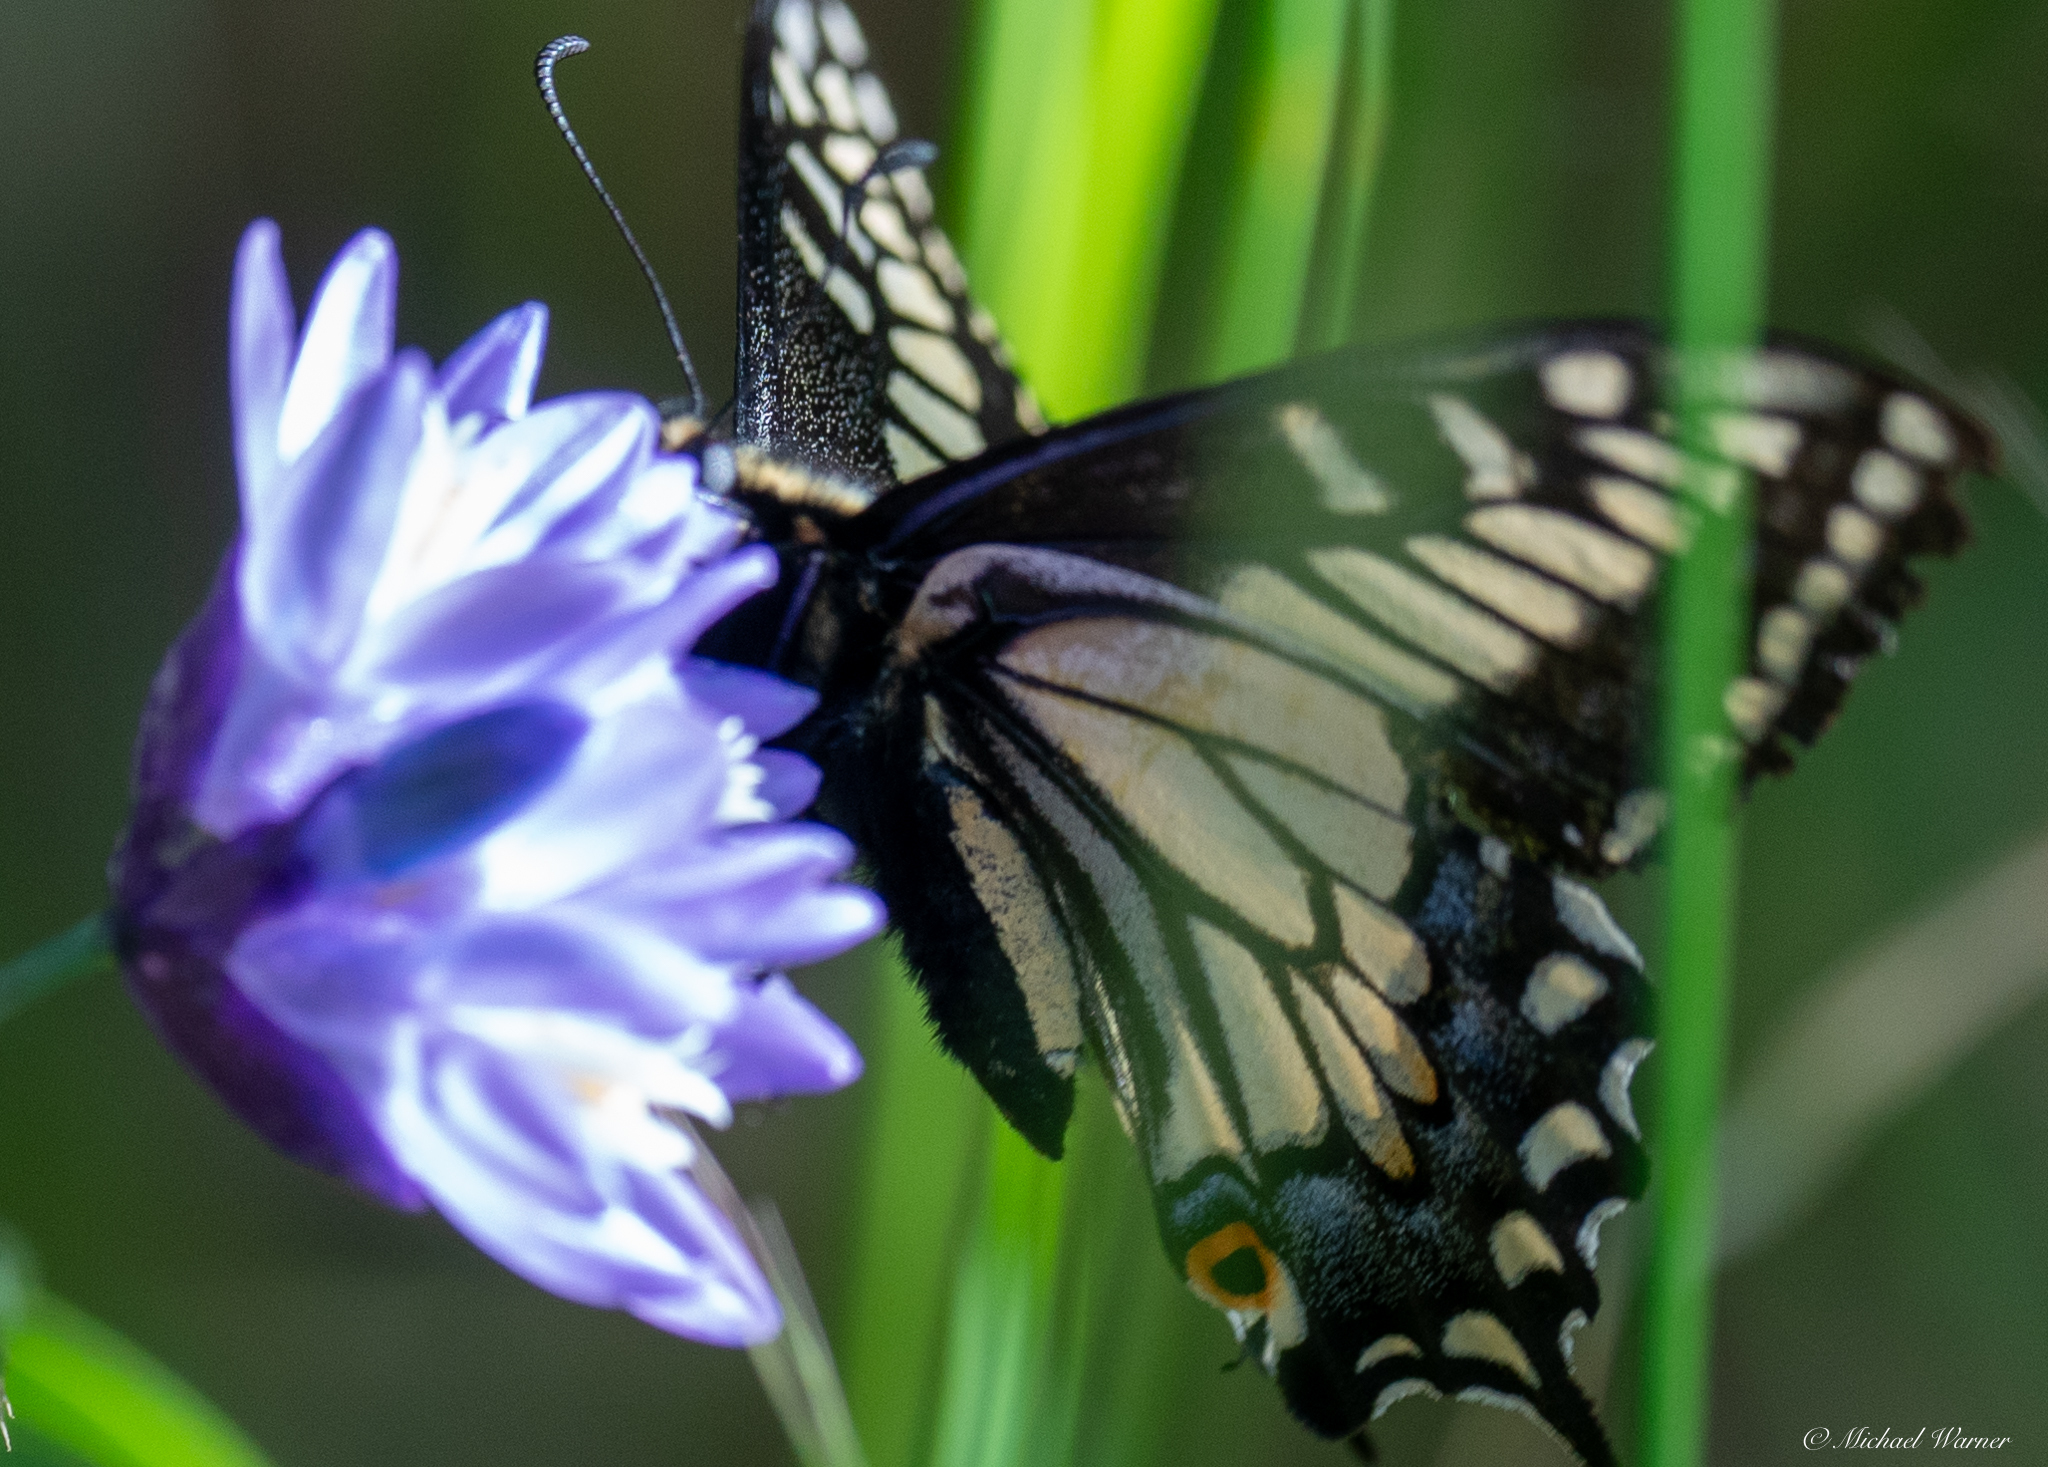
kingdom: Animalia
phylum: Arthropoda
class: Insecta
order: Lepidoptera
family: Papilionidae
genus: Papilio
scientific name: Papilio zelicaon
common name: Anise swallowtail
